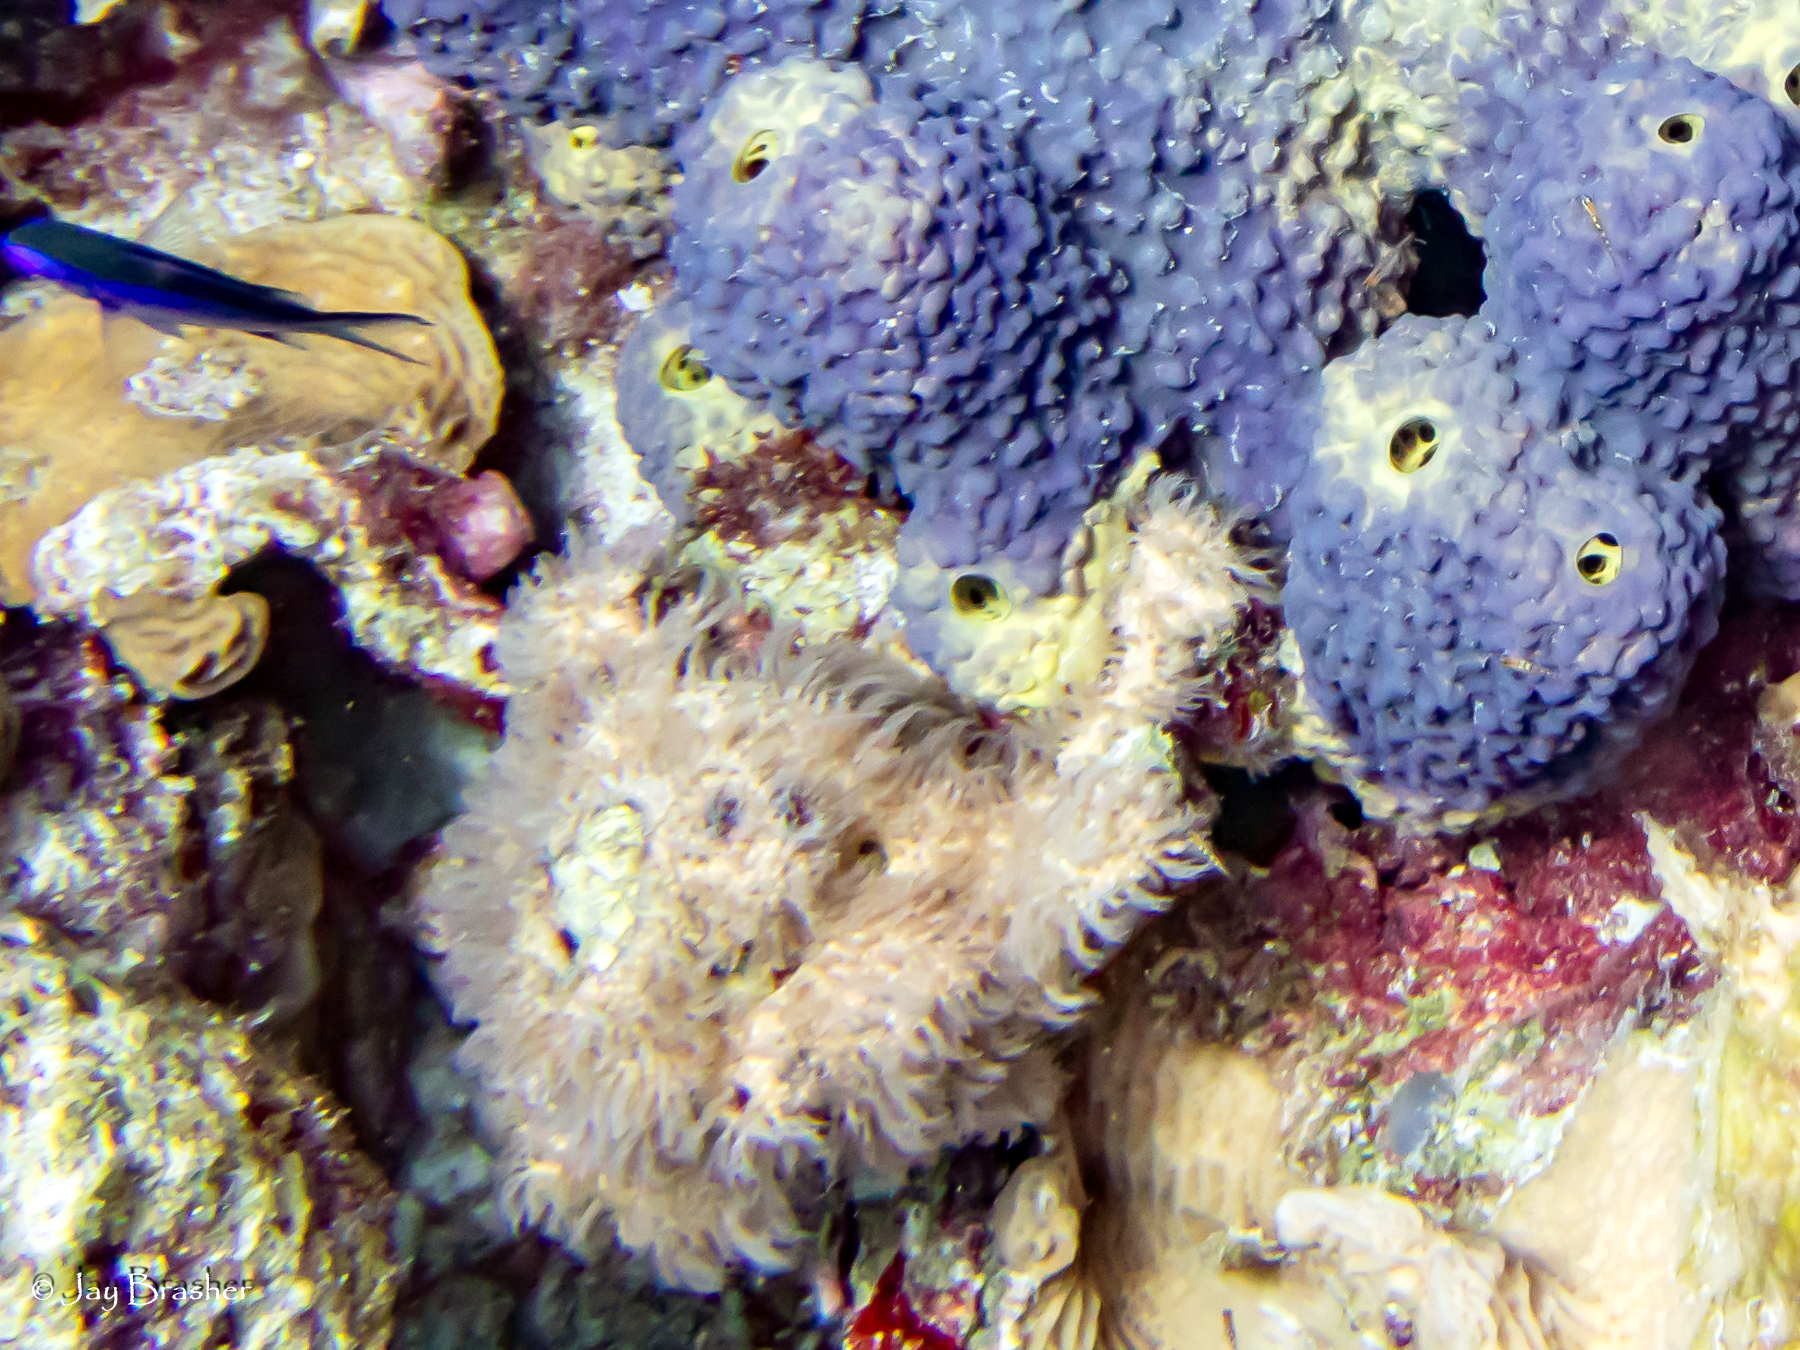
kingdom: Animalia
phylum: Cnidaria
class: Anthozoa
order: Scleralcyonacea
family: Erythropodiidae
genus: Erythropodium
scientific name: Erythropodium caribaeorum
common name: Encrusting gorgonian
